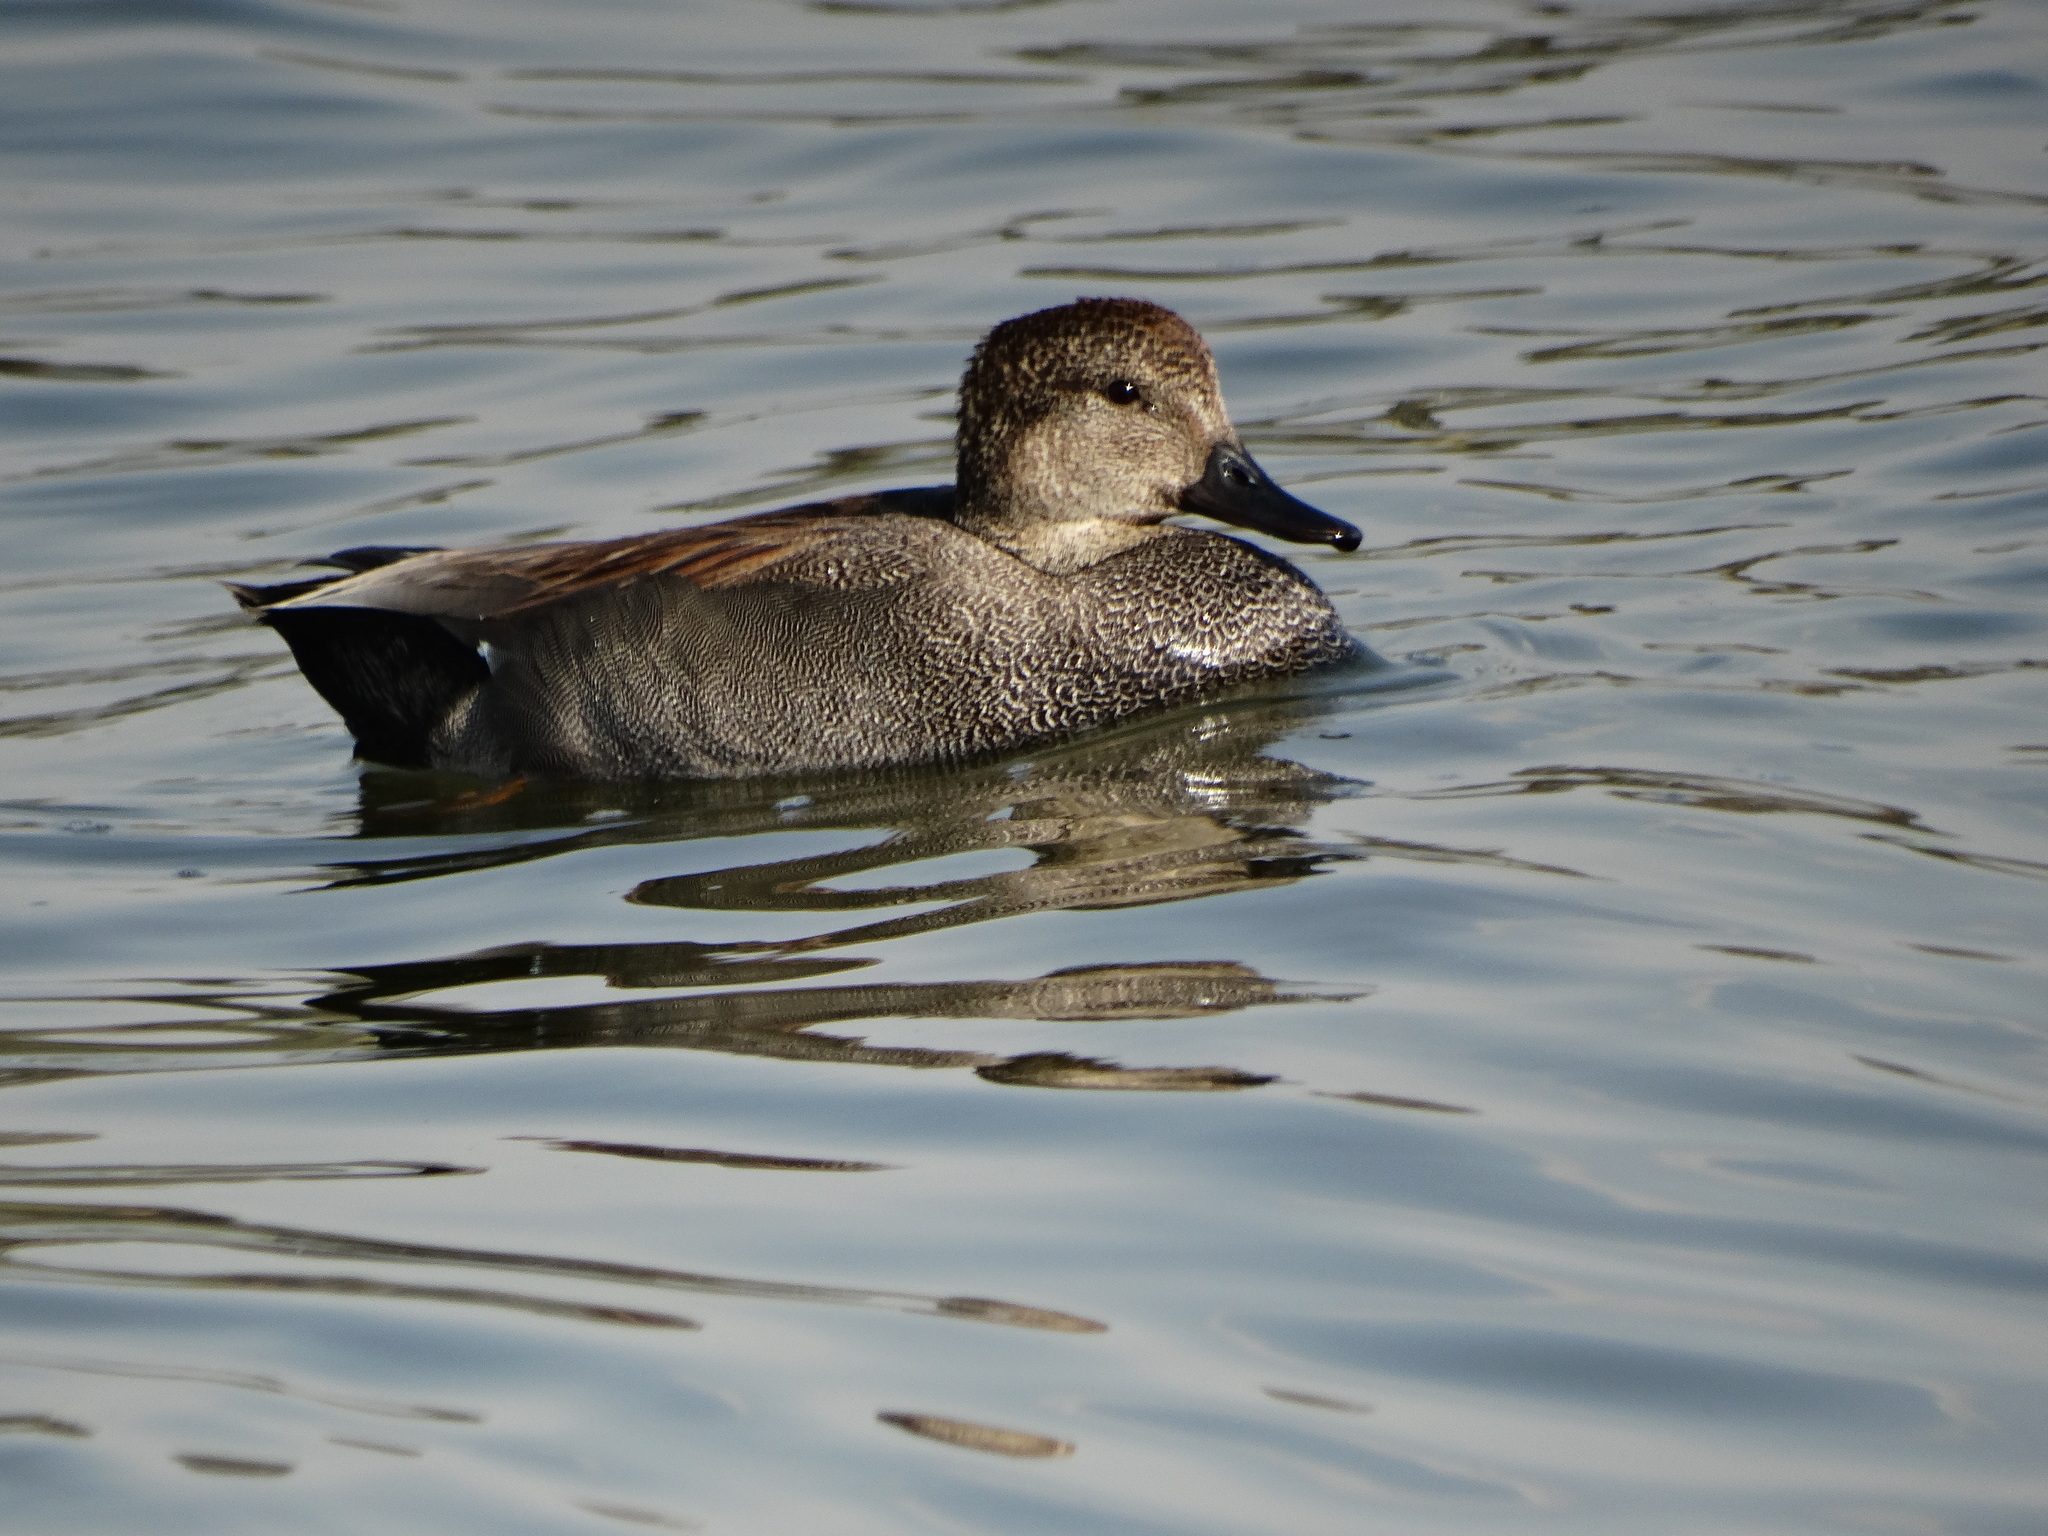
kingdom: Animalia
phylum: Chordata
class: Aves
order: Anseriformes
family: Anatidae
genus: Mareca
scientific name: Mareca strepera
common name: Gadwall
